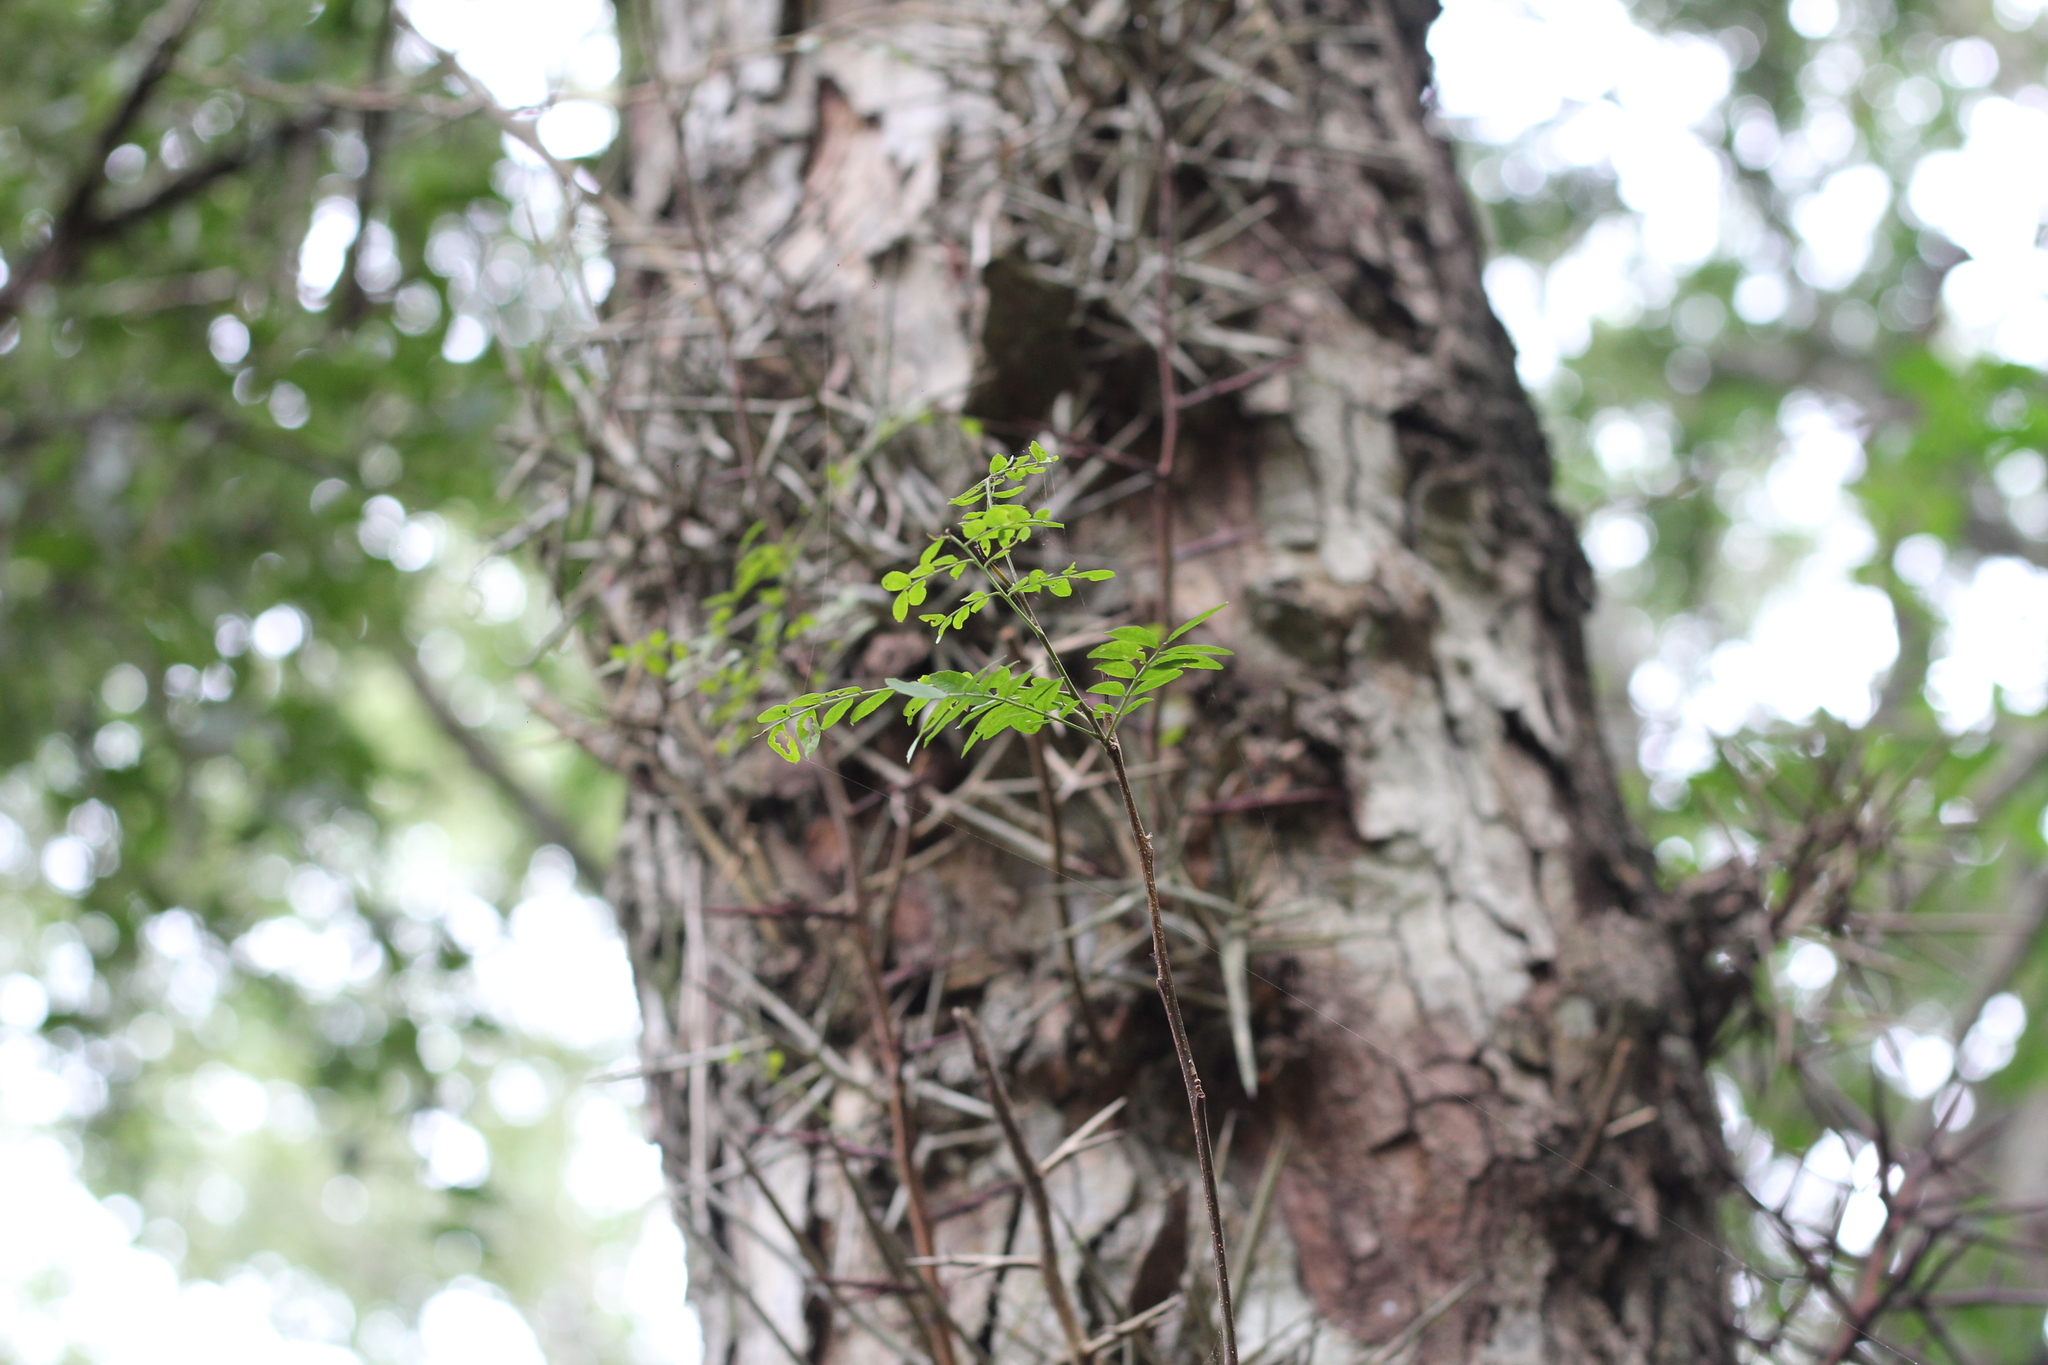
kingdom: Plantae
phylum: Tracheophyta
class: Magnoliopsida
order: Fabales
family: Fabaceae
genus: Gleditsia
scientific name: Gleditsia amorphoides
